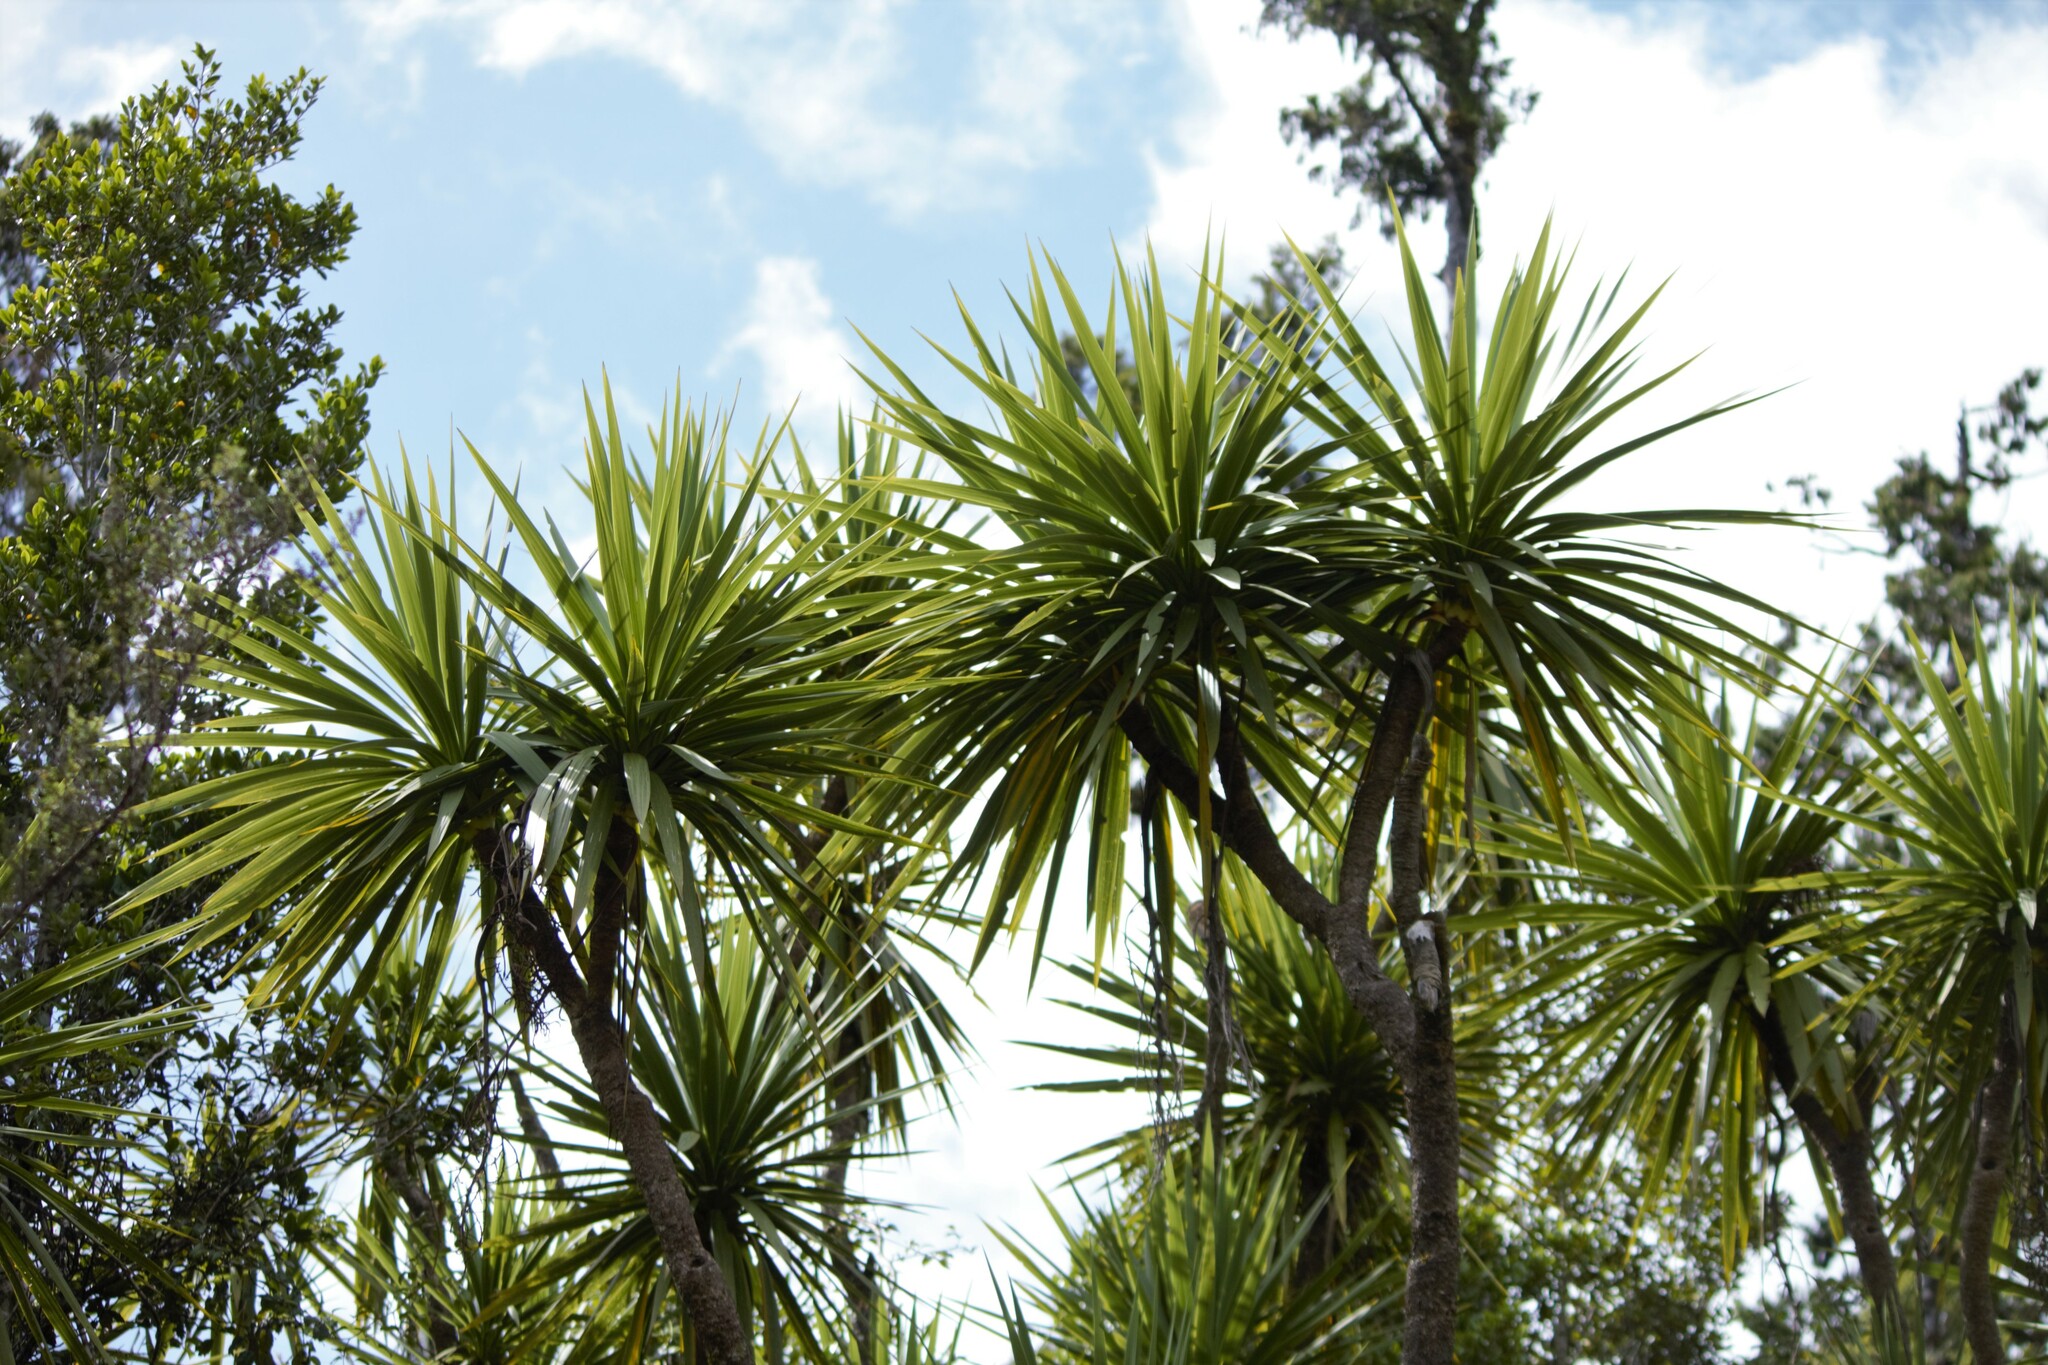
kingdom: Plantae
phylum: Tracheophyta
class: Liliopsida
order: Asparagales
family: Asparagaceae
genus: Cordyline
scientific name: Cordyline australis
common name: Cabbage-palm
